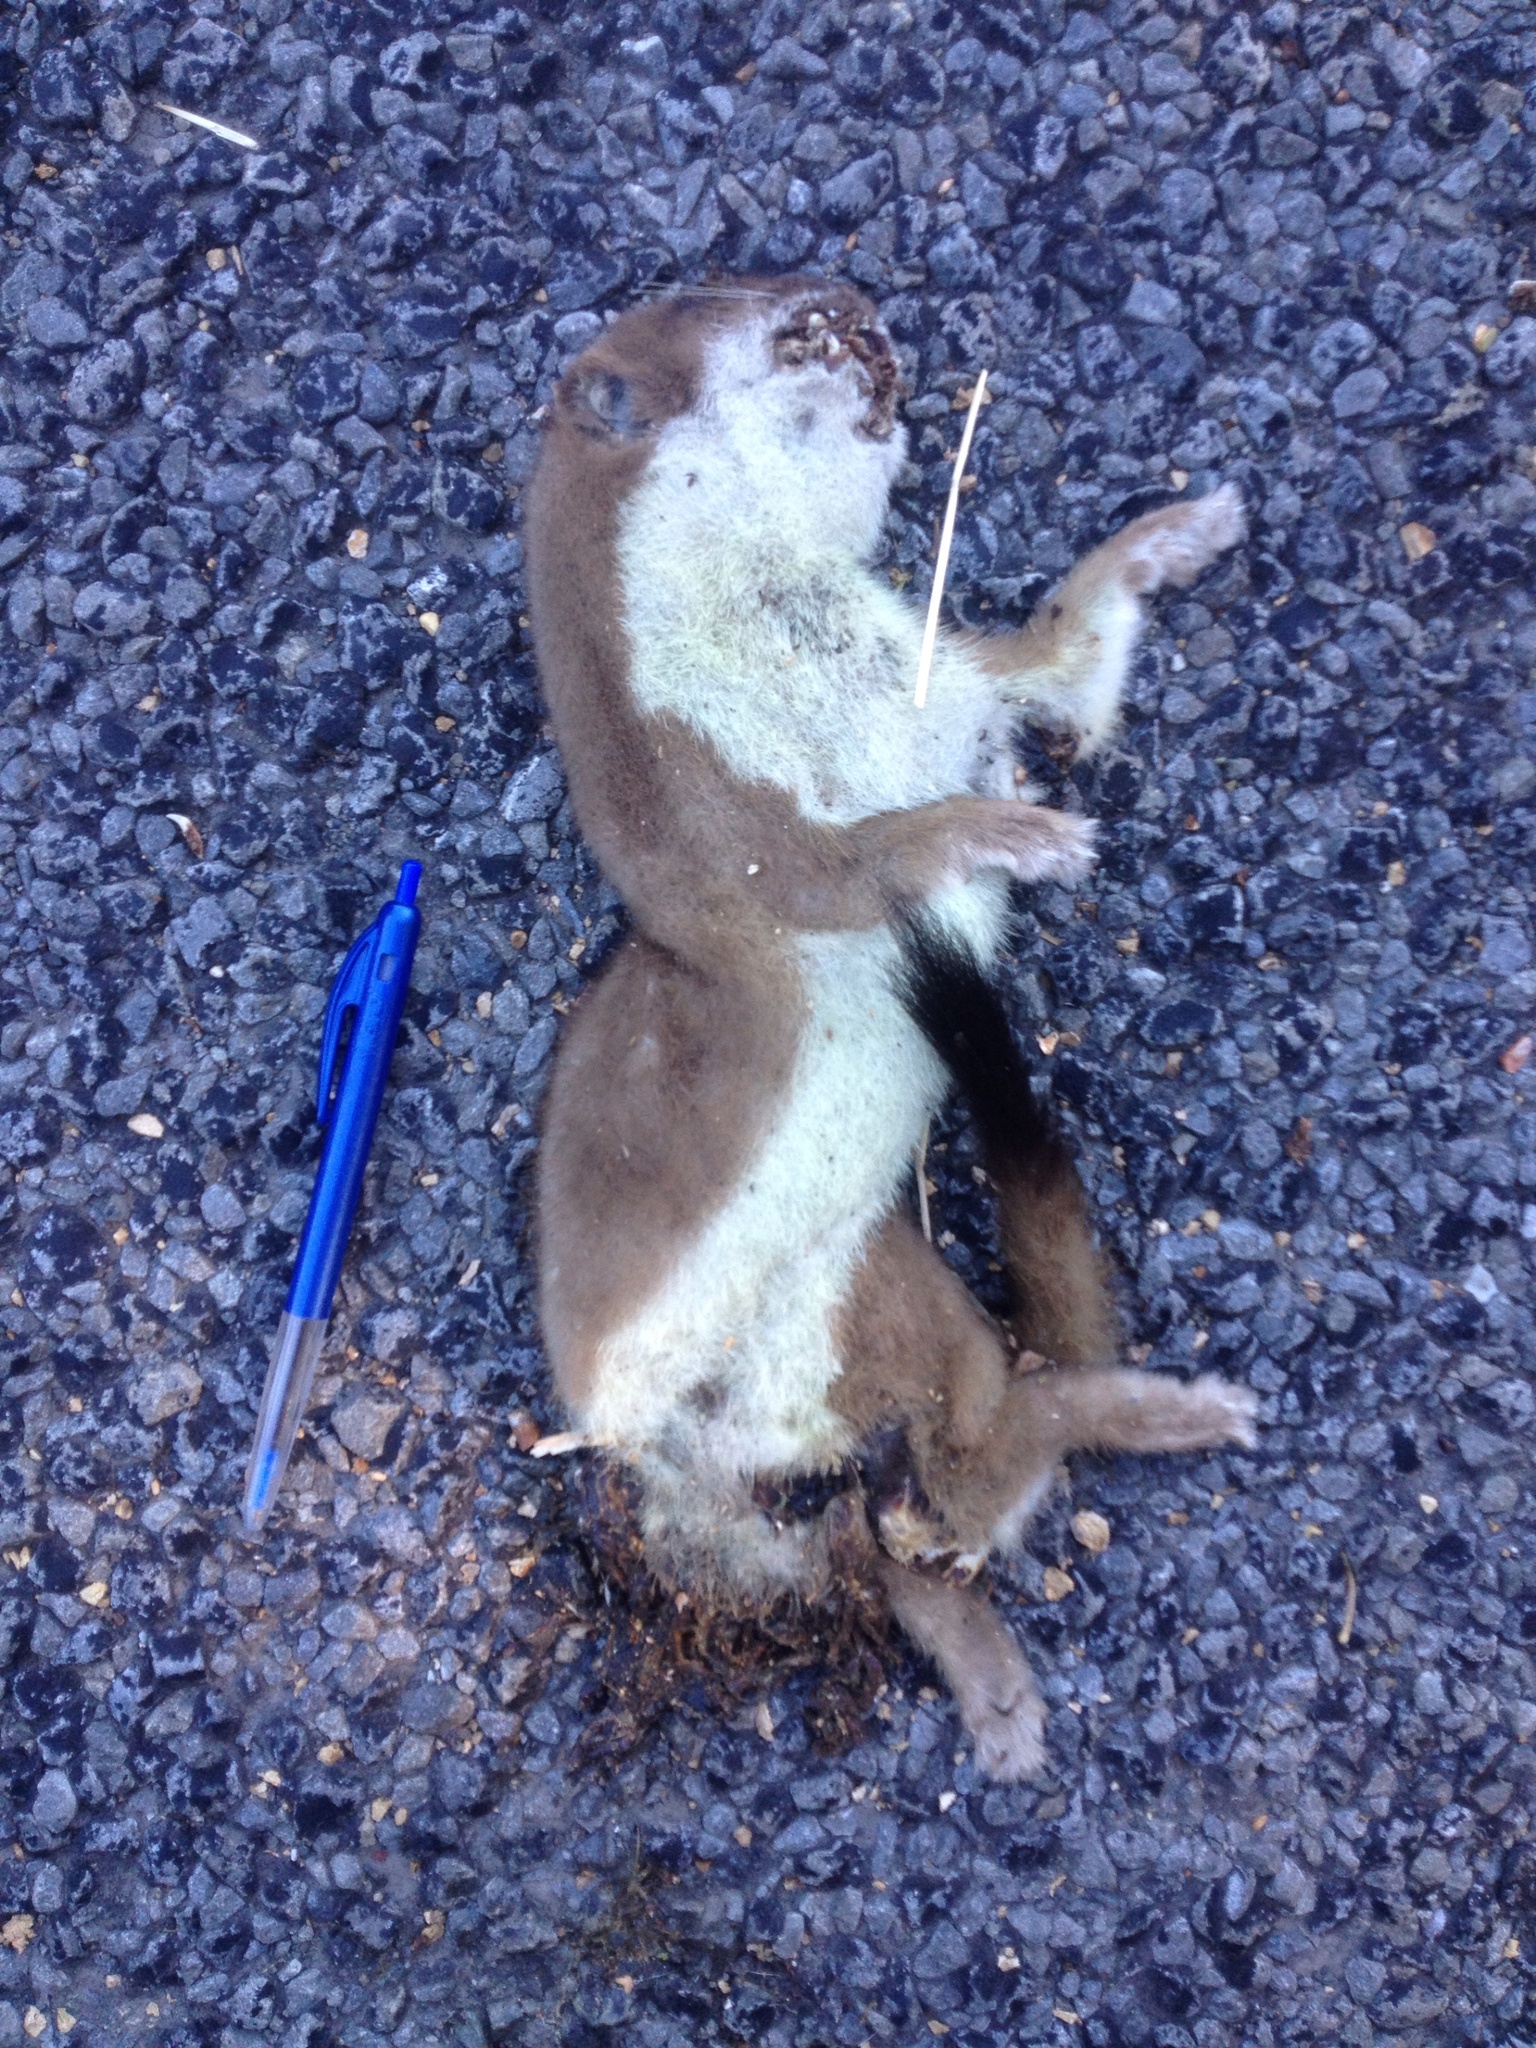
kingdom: Animalia
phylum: Chordata
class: Mammalia
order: Carnivora
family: Mustelidae
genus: Mustela
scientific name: Mustela erminea
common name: Stoat
